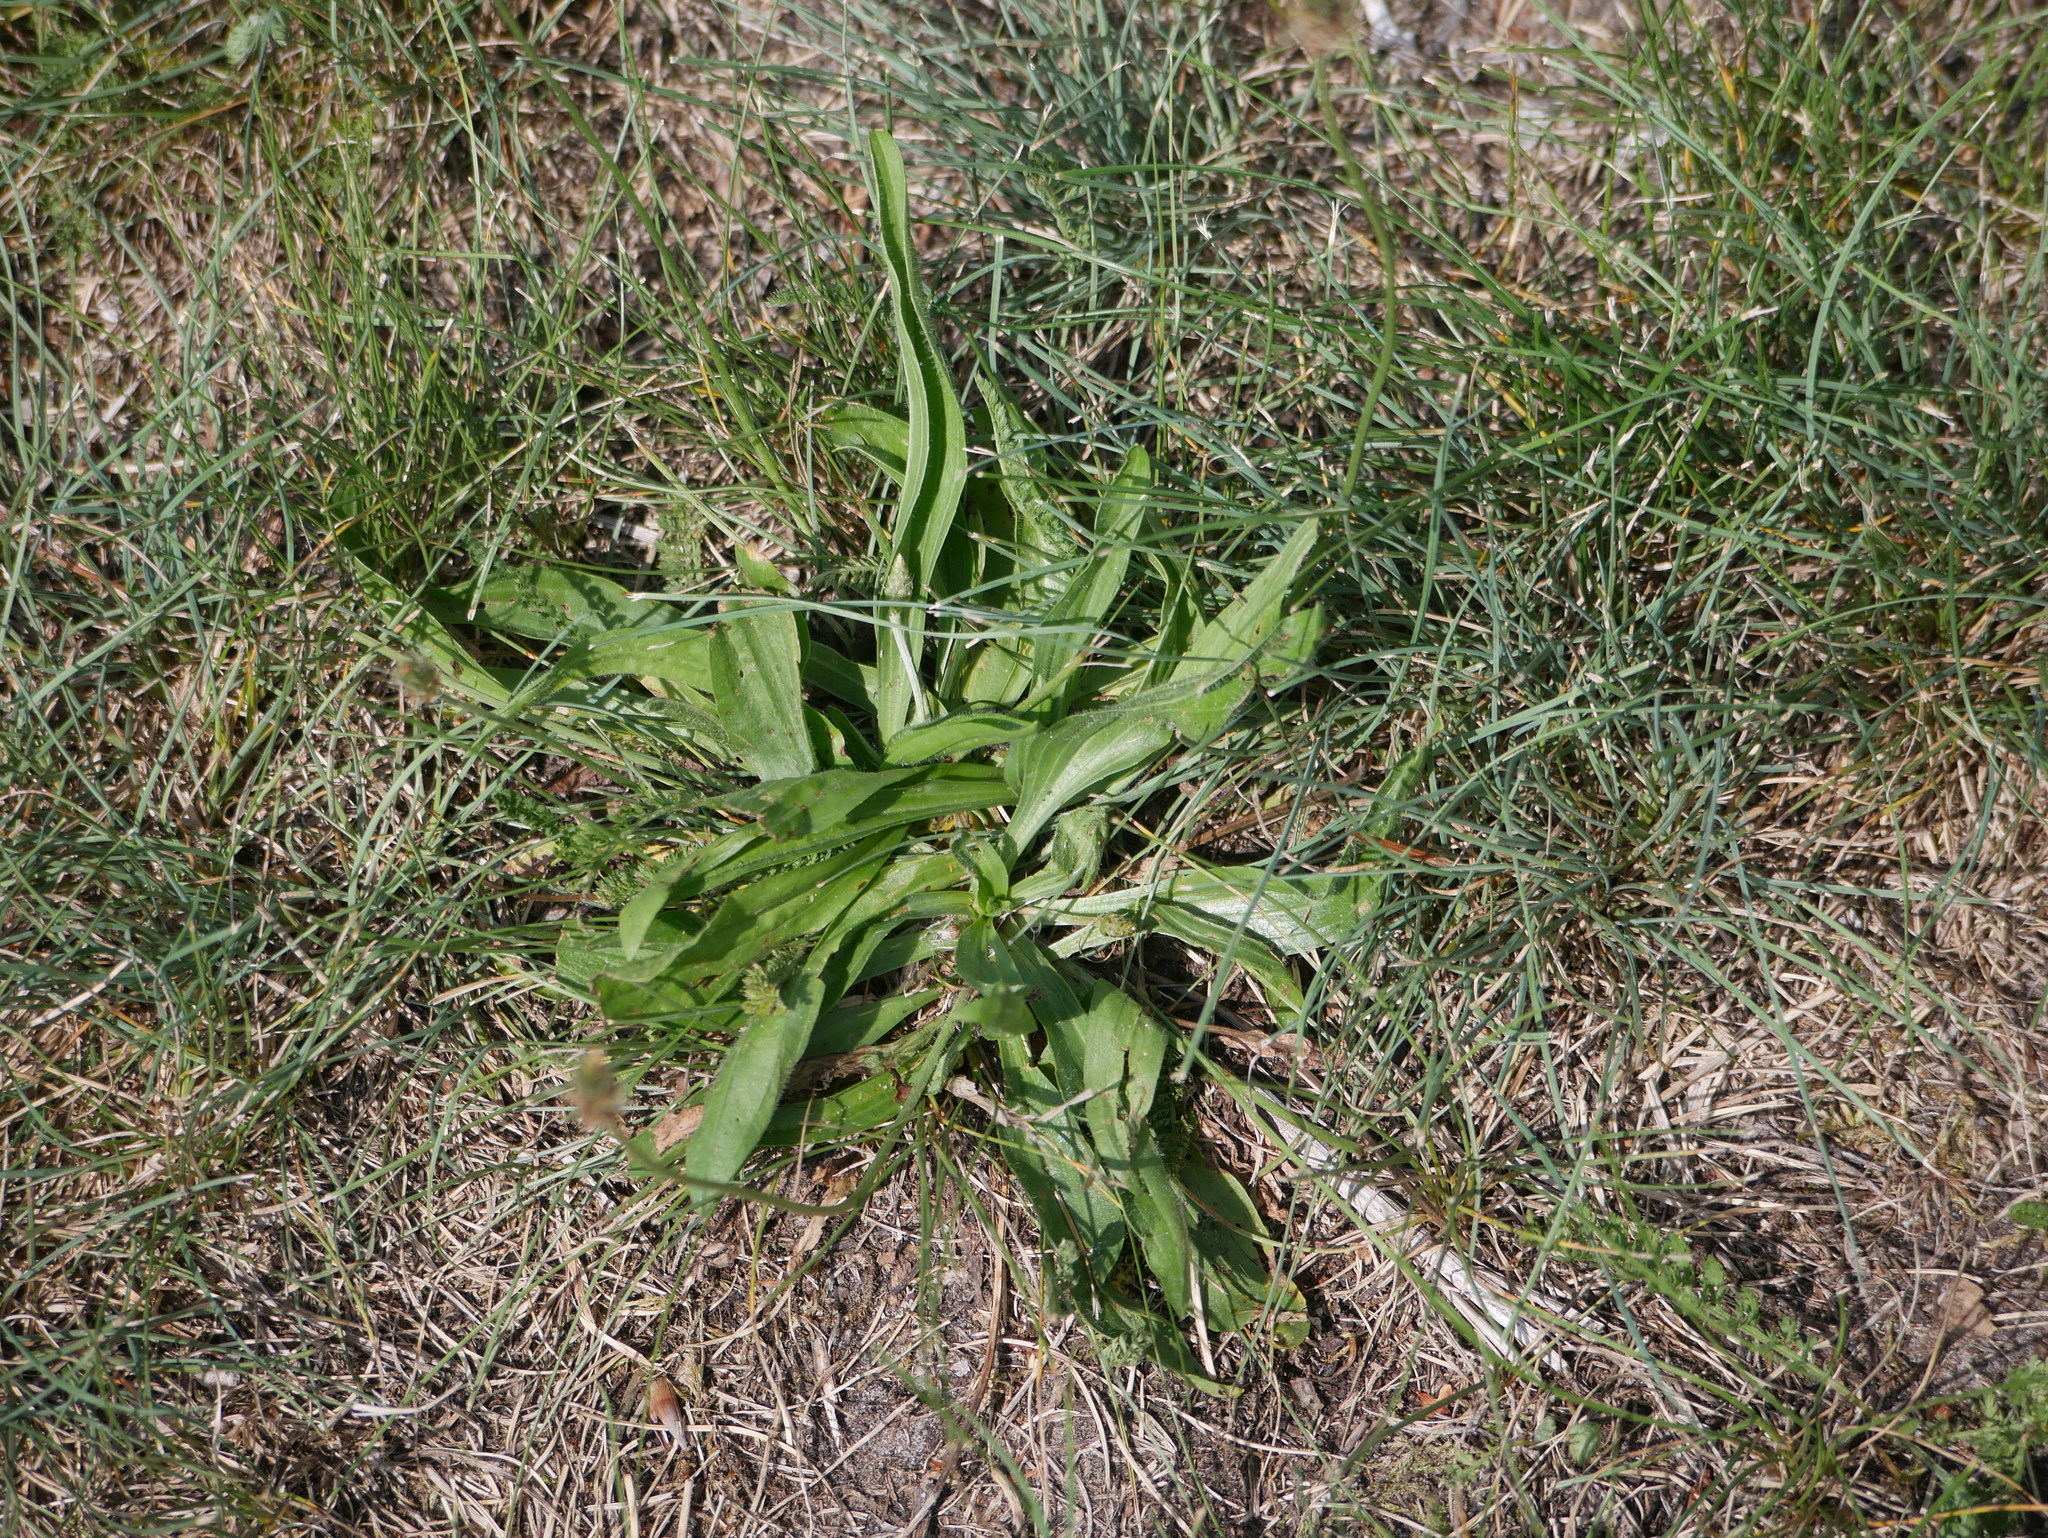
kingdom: Plantae
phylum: Tracheophyta
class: Magnoliopsida
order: Lamiales
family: Plantaginaceae
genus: Plantago
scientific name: Plantago lanceolata
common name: Ribwort plantain
